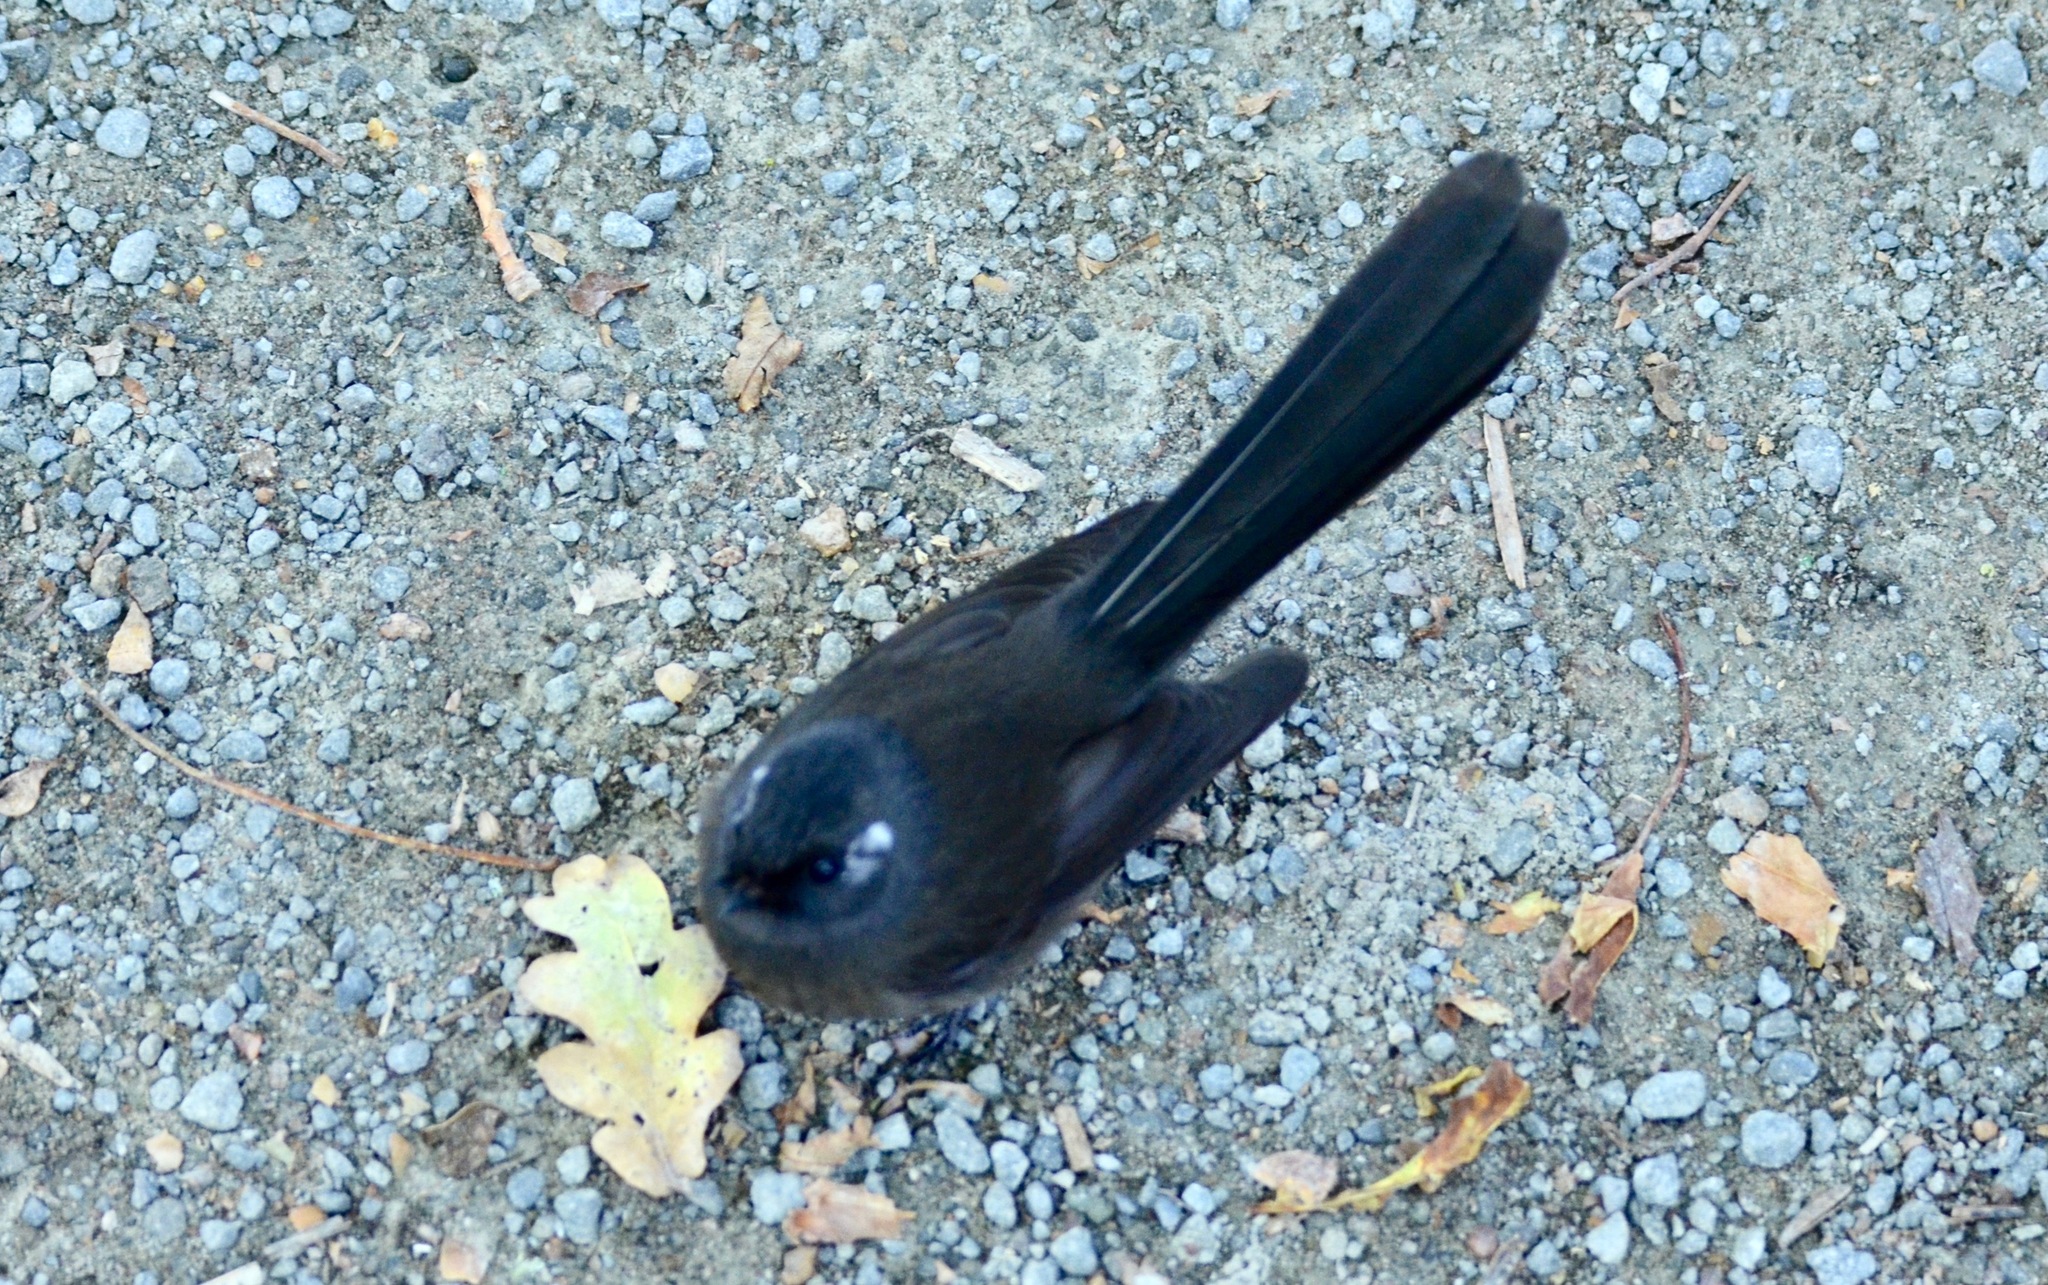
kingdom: Animalia
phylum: Chordata
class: Aves
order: Passeriformes
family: Rhipiduridae
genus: Rhipidura
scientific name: Rhipidura fuliginosa
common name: New zealand fantail
